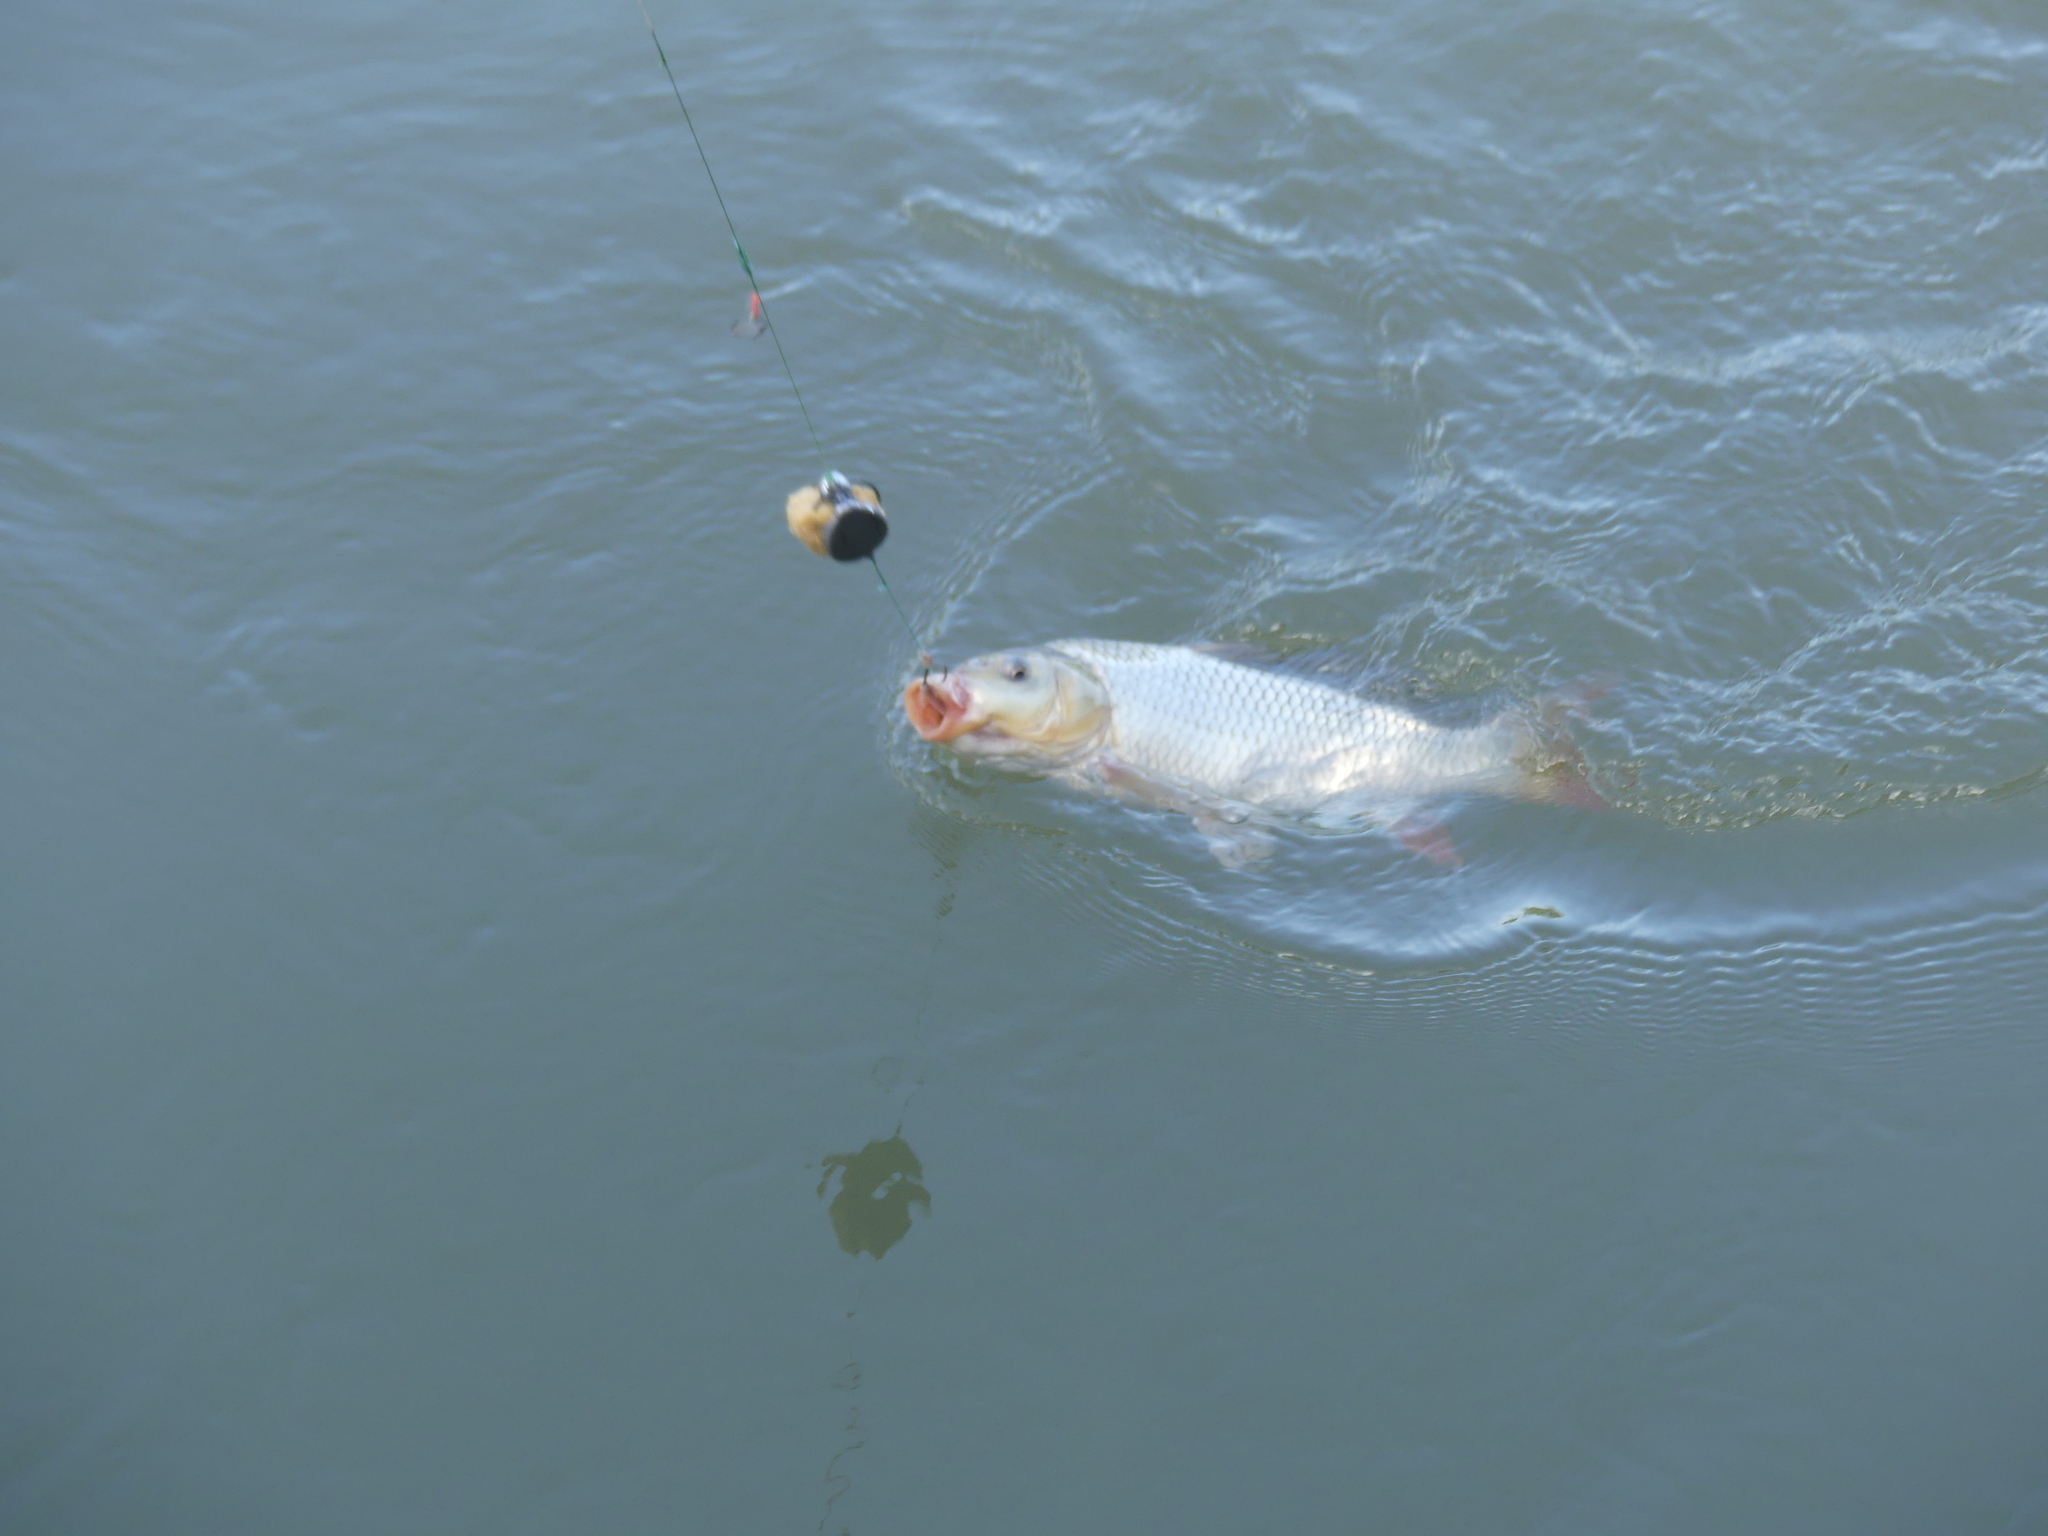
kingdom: Animalia
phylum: Chordata
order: Cypriniformes
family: Cyprinidae
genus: Cyprinus
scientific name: Cyprinus carpio
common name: Common carp
